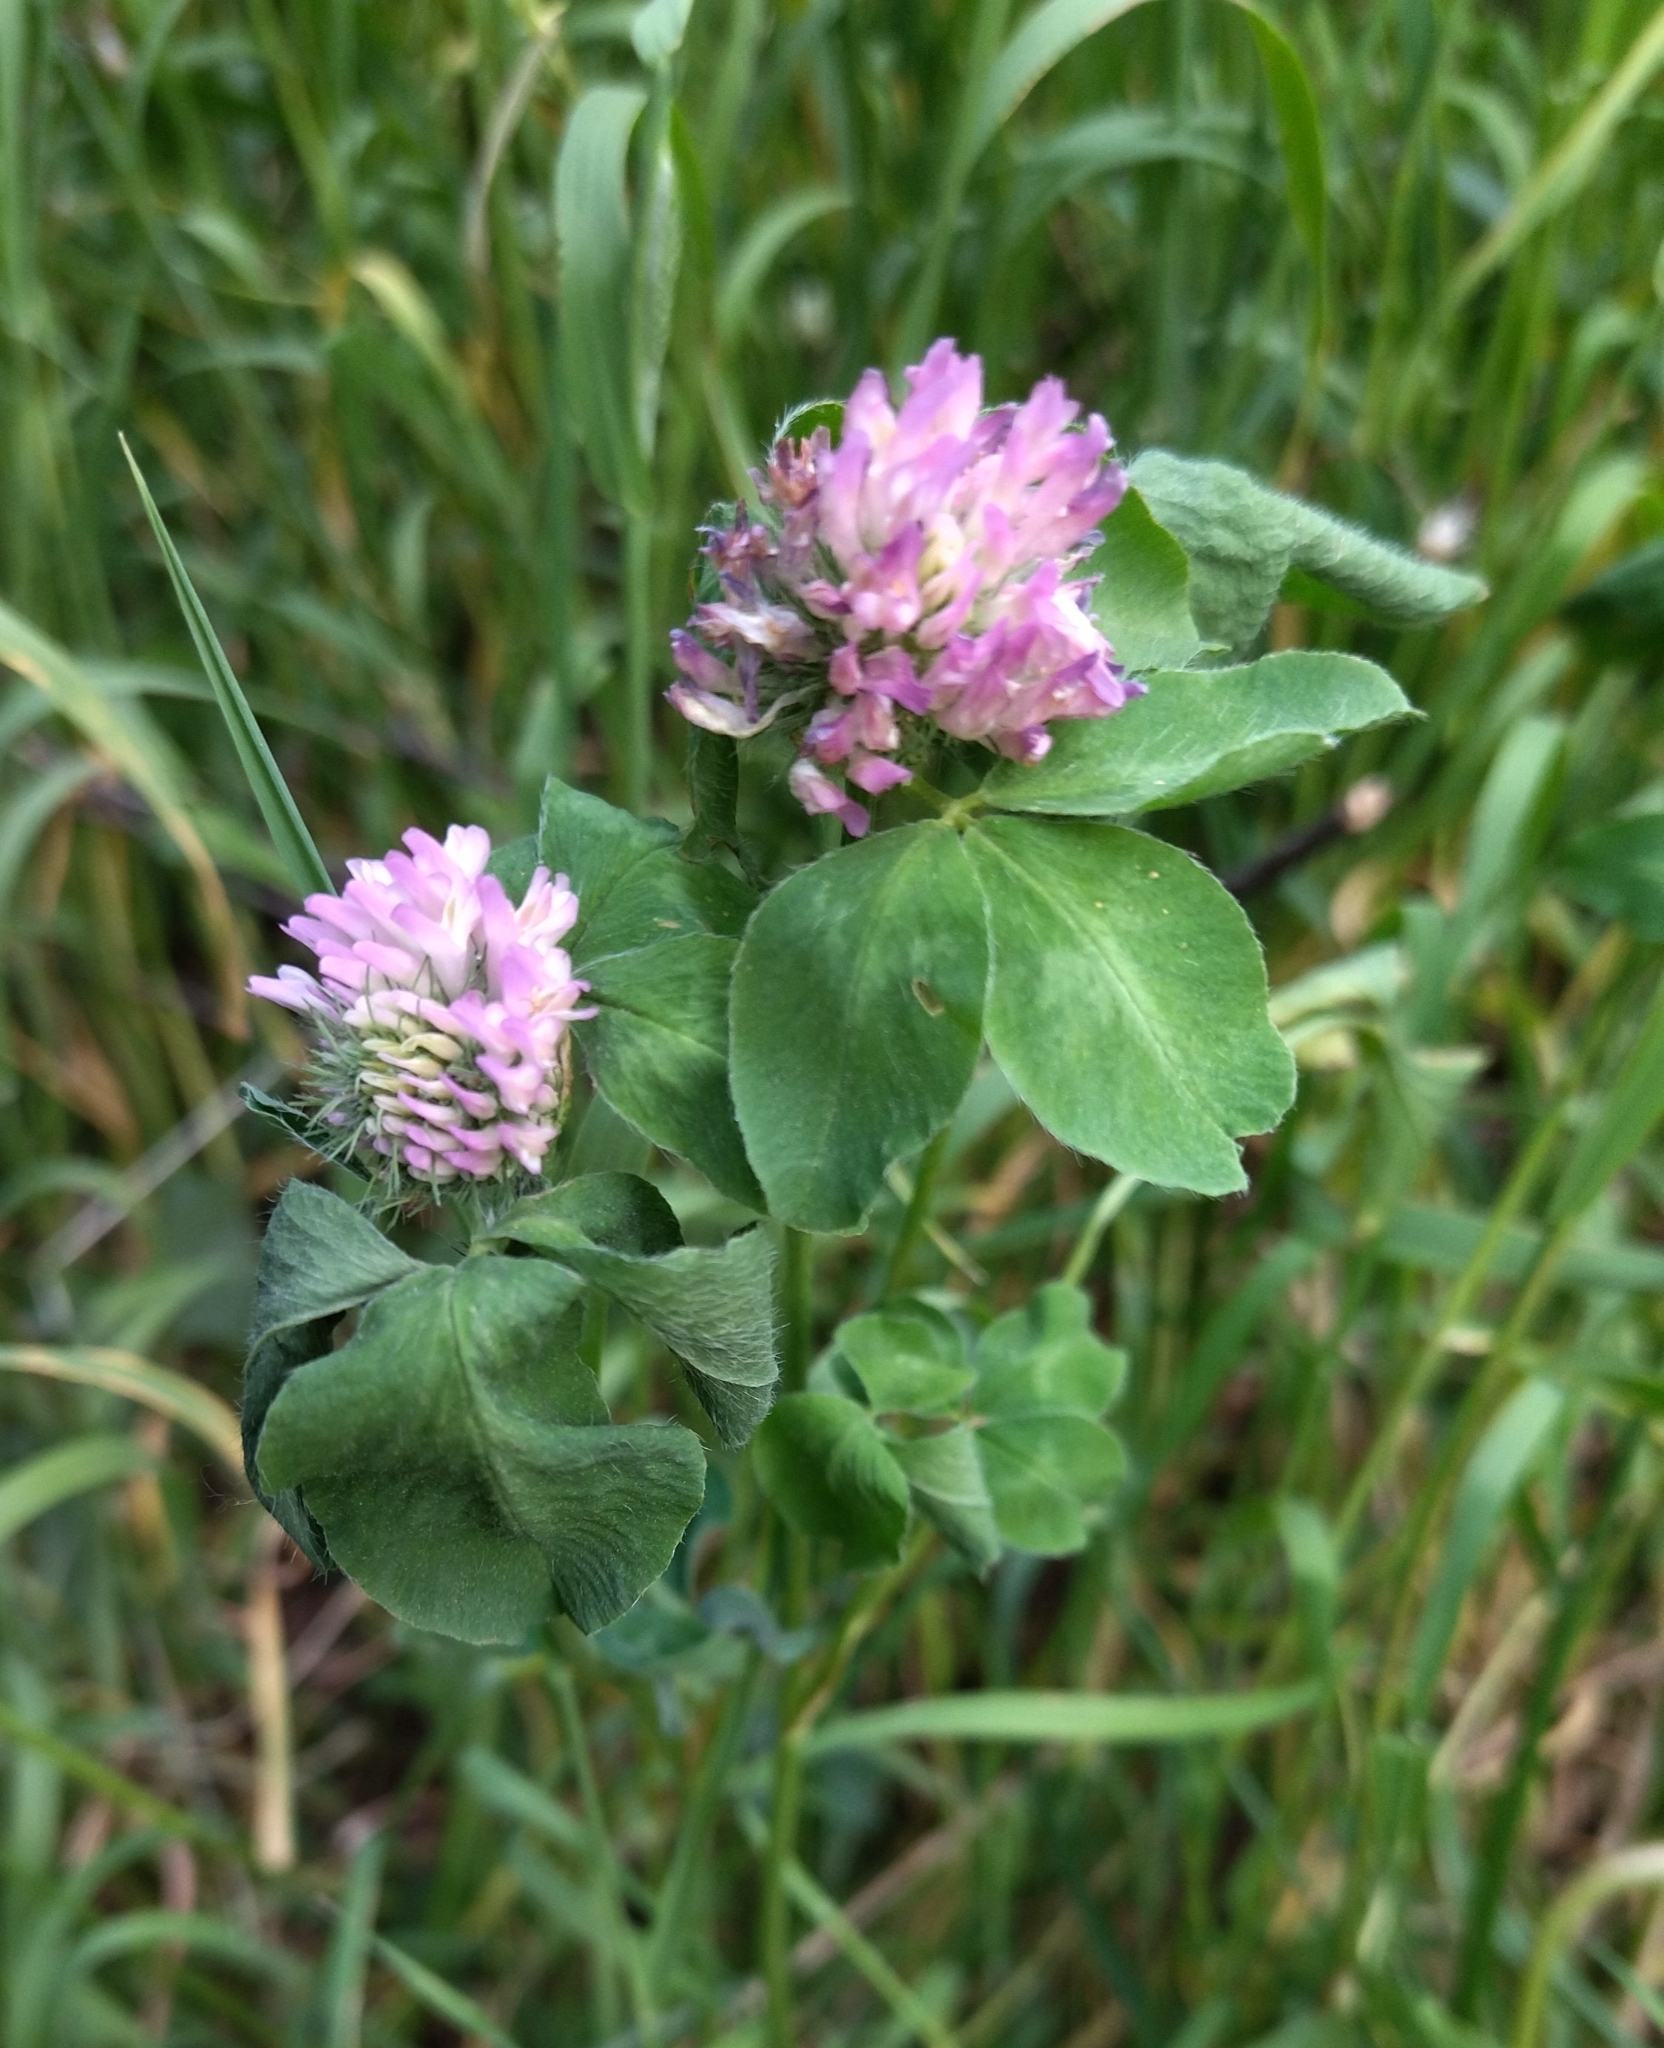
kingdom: Plantae
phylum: Tracheophyta
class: Magnoliopsida
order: Fabales
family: Fabaceae
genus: Trifolium
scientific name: Trifolium pratense
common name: Red clover
